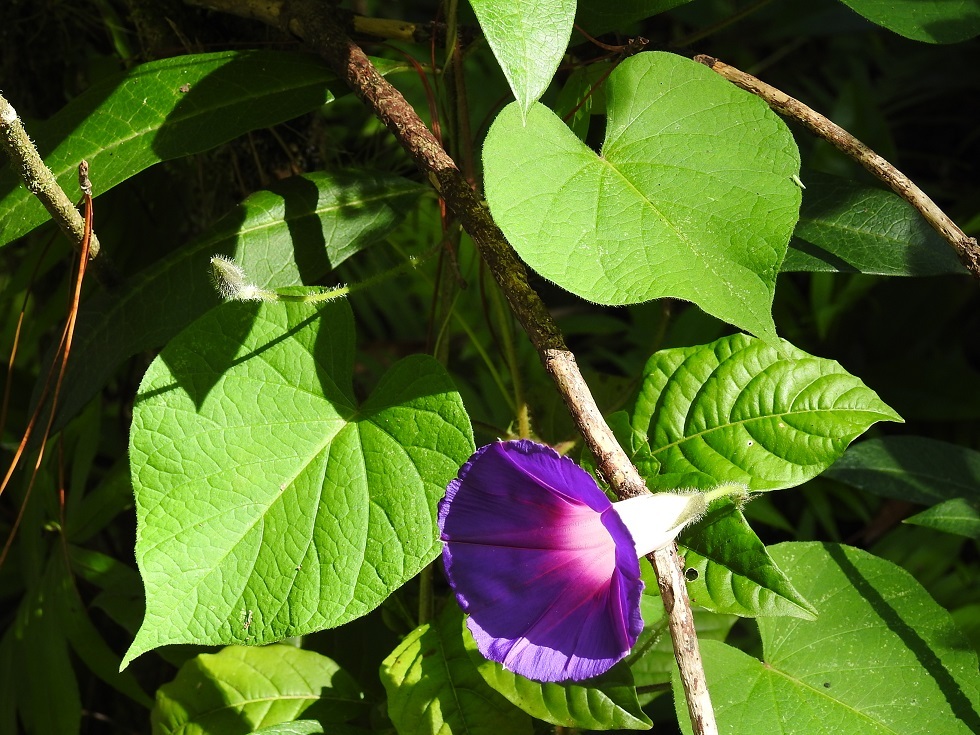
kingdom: Plantae
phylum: Tracheophyta
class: Magnoliopsida
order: Solanales
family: Convolvulaceae
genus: Ipomoea
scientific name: Ipomoea purpurea
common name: Common morning-glory
